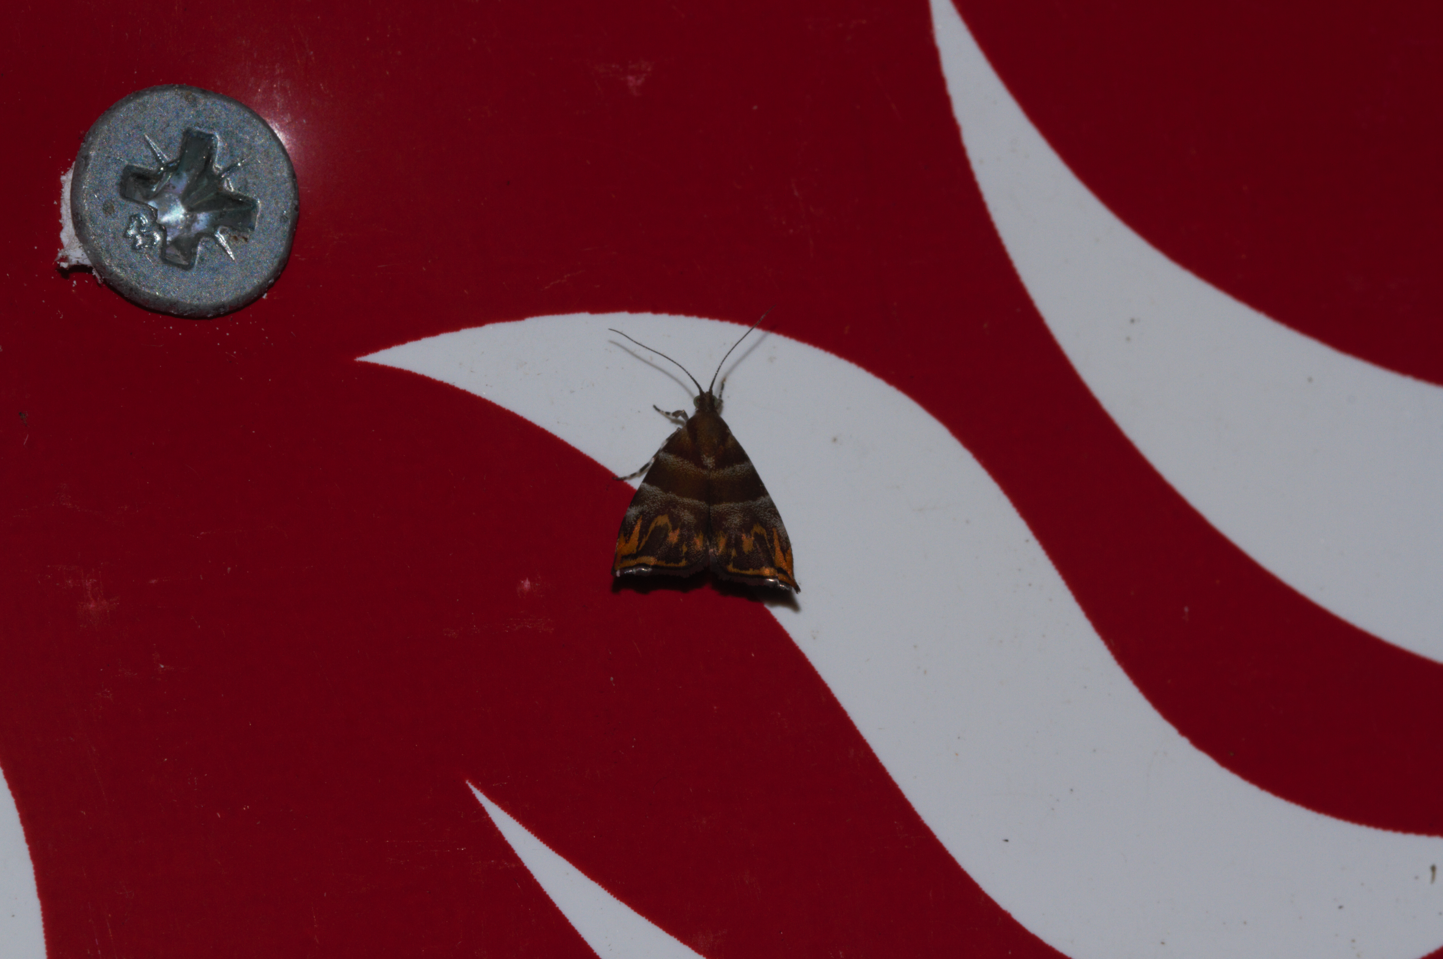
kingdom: Animalia
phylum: Arthropoda
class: Insecta
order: Lepidoptera
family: Choreutidae
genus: Ornarantia
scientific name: Ornarantia
